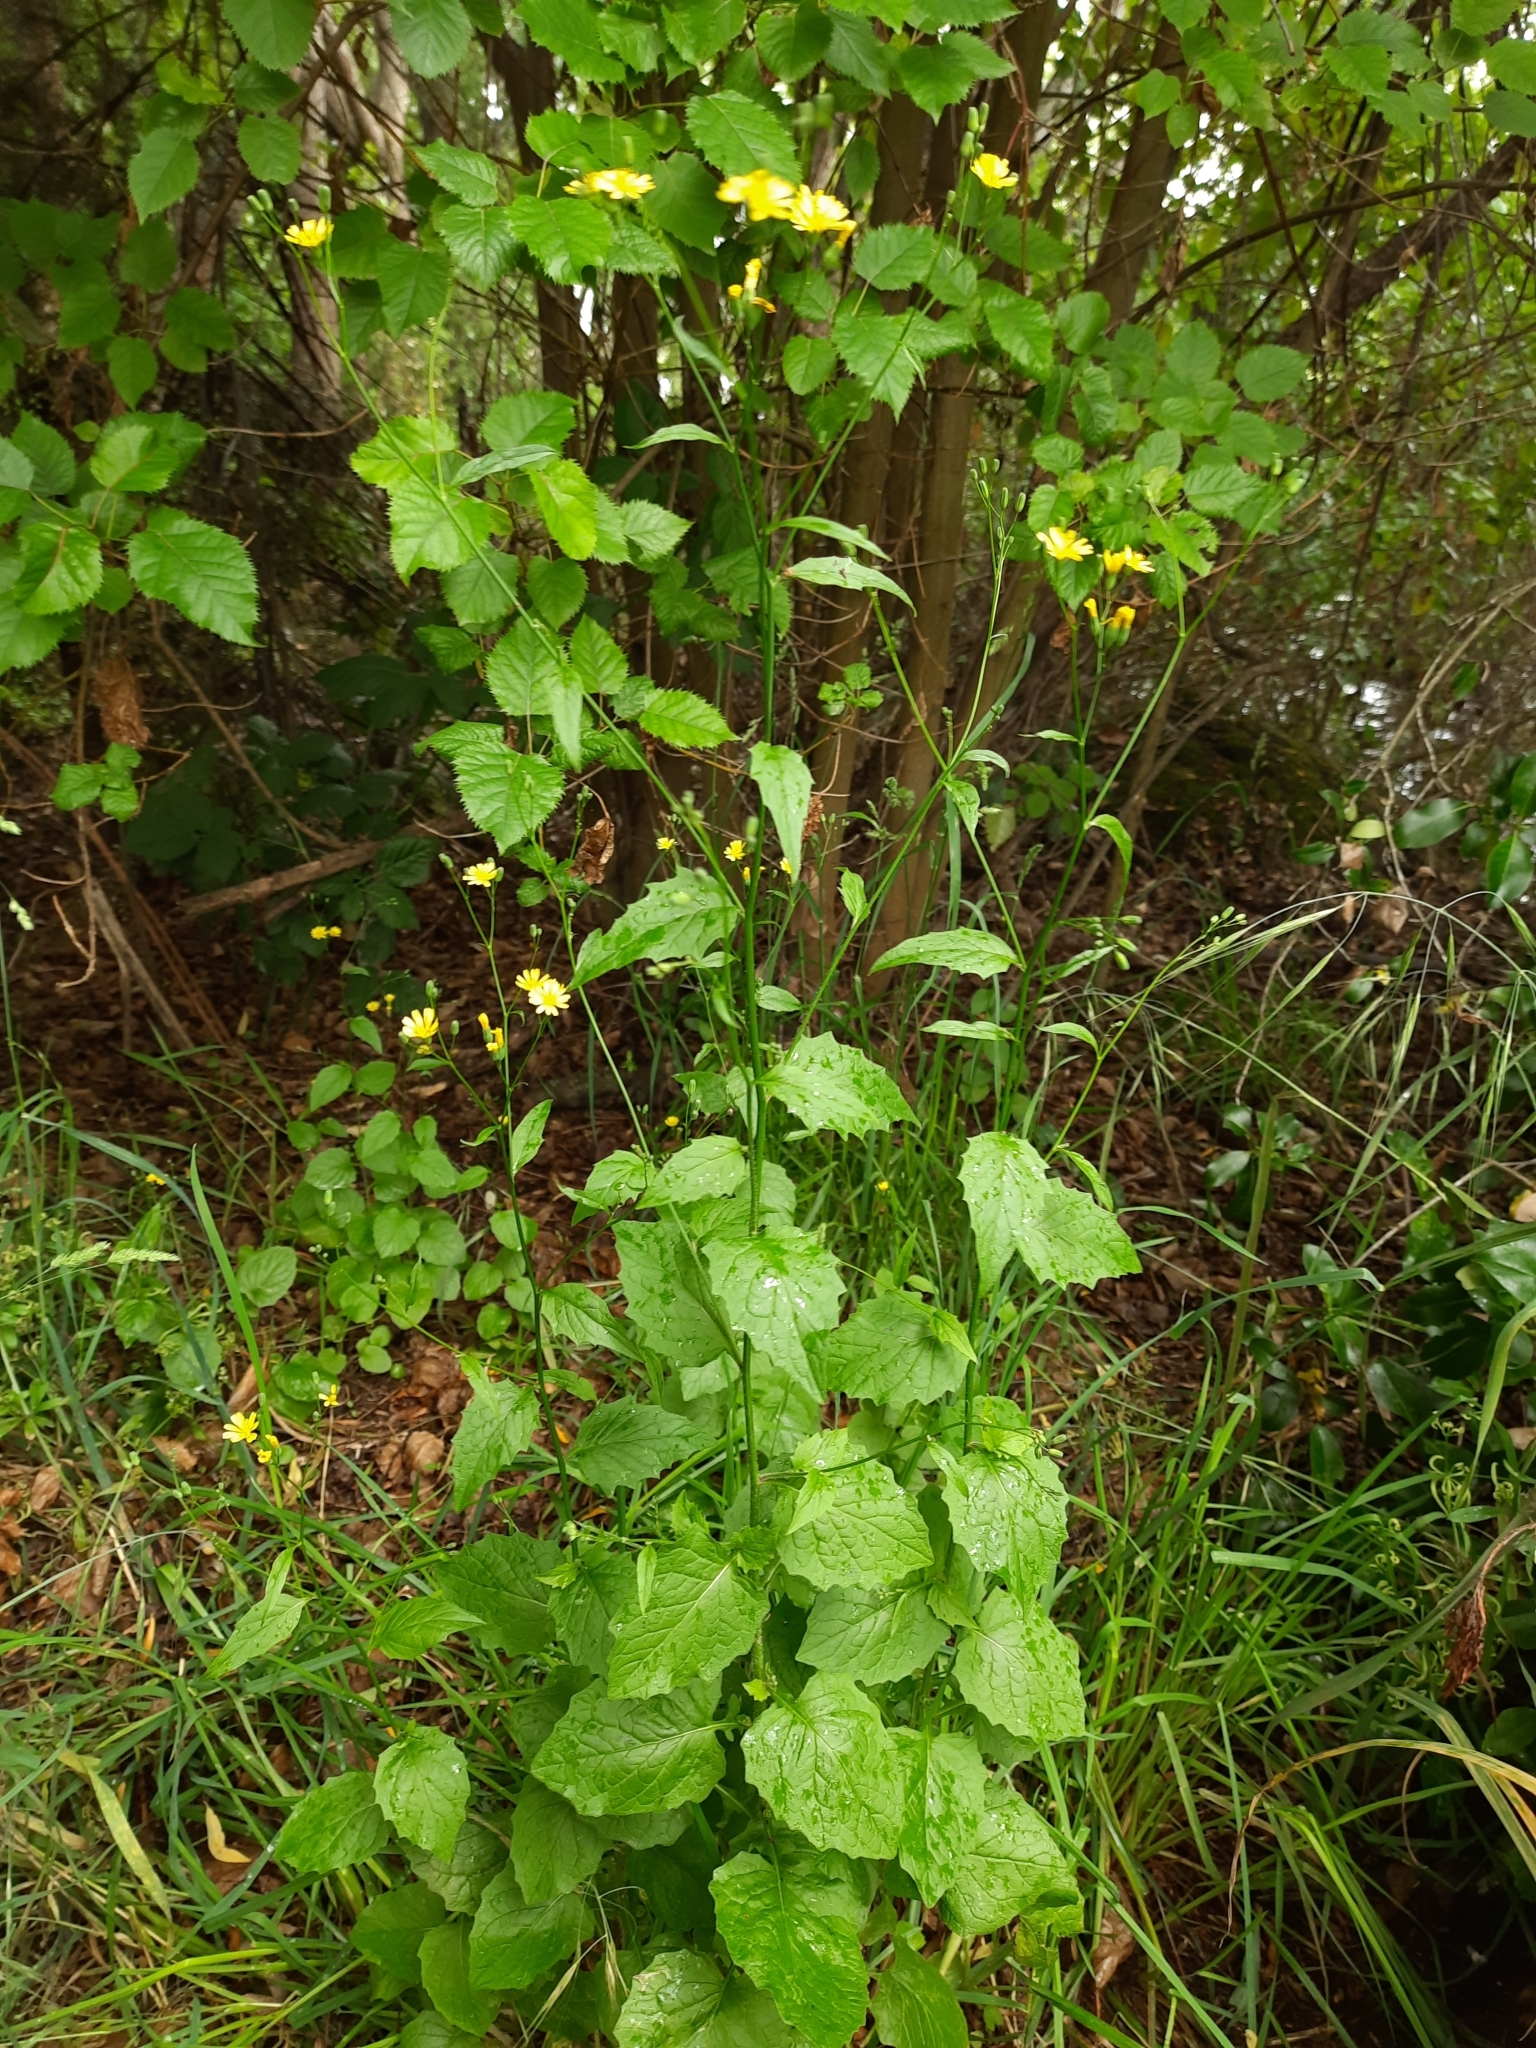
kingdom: Plantae
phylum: Tracheophyta
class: Magnoliopsida
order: Asterales
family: Asteraceae
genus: Lapsana
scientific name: Lapsana communis
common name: Nipplewort
